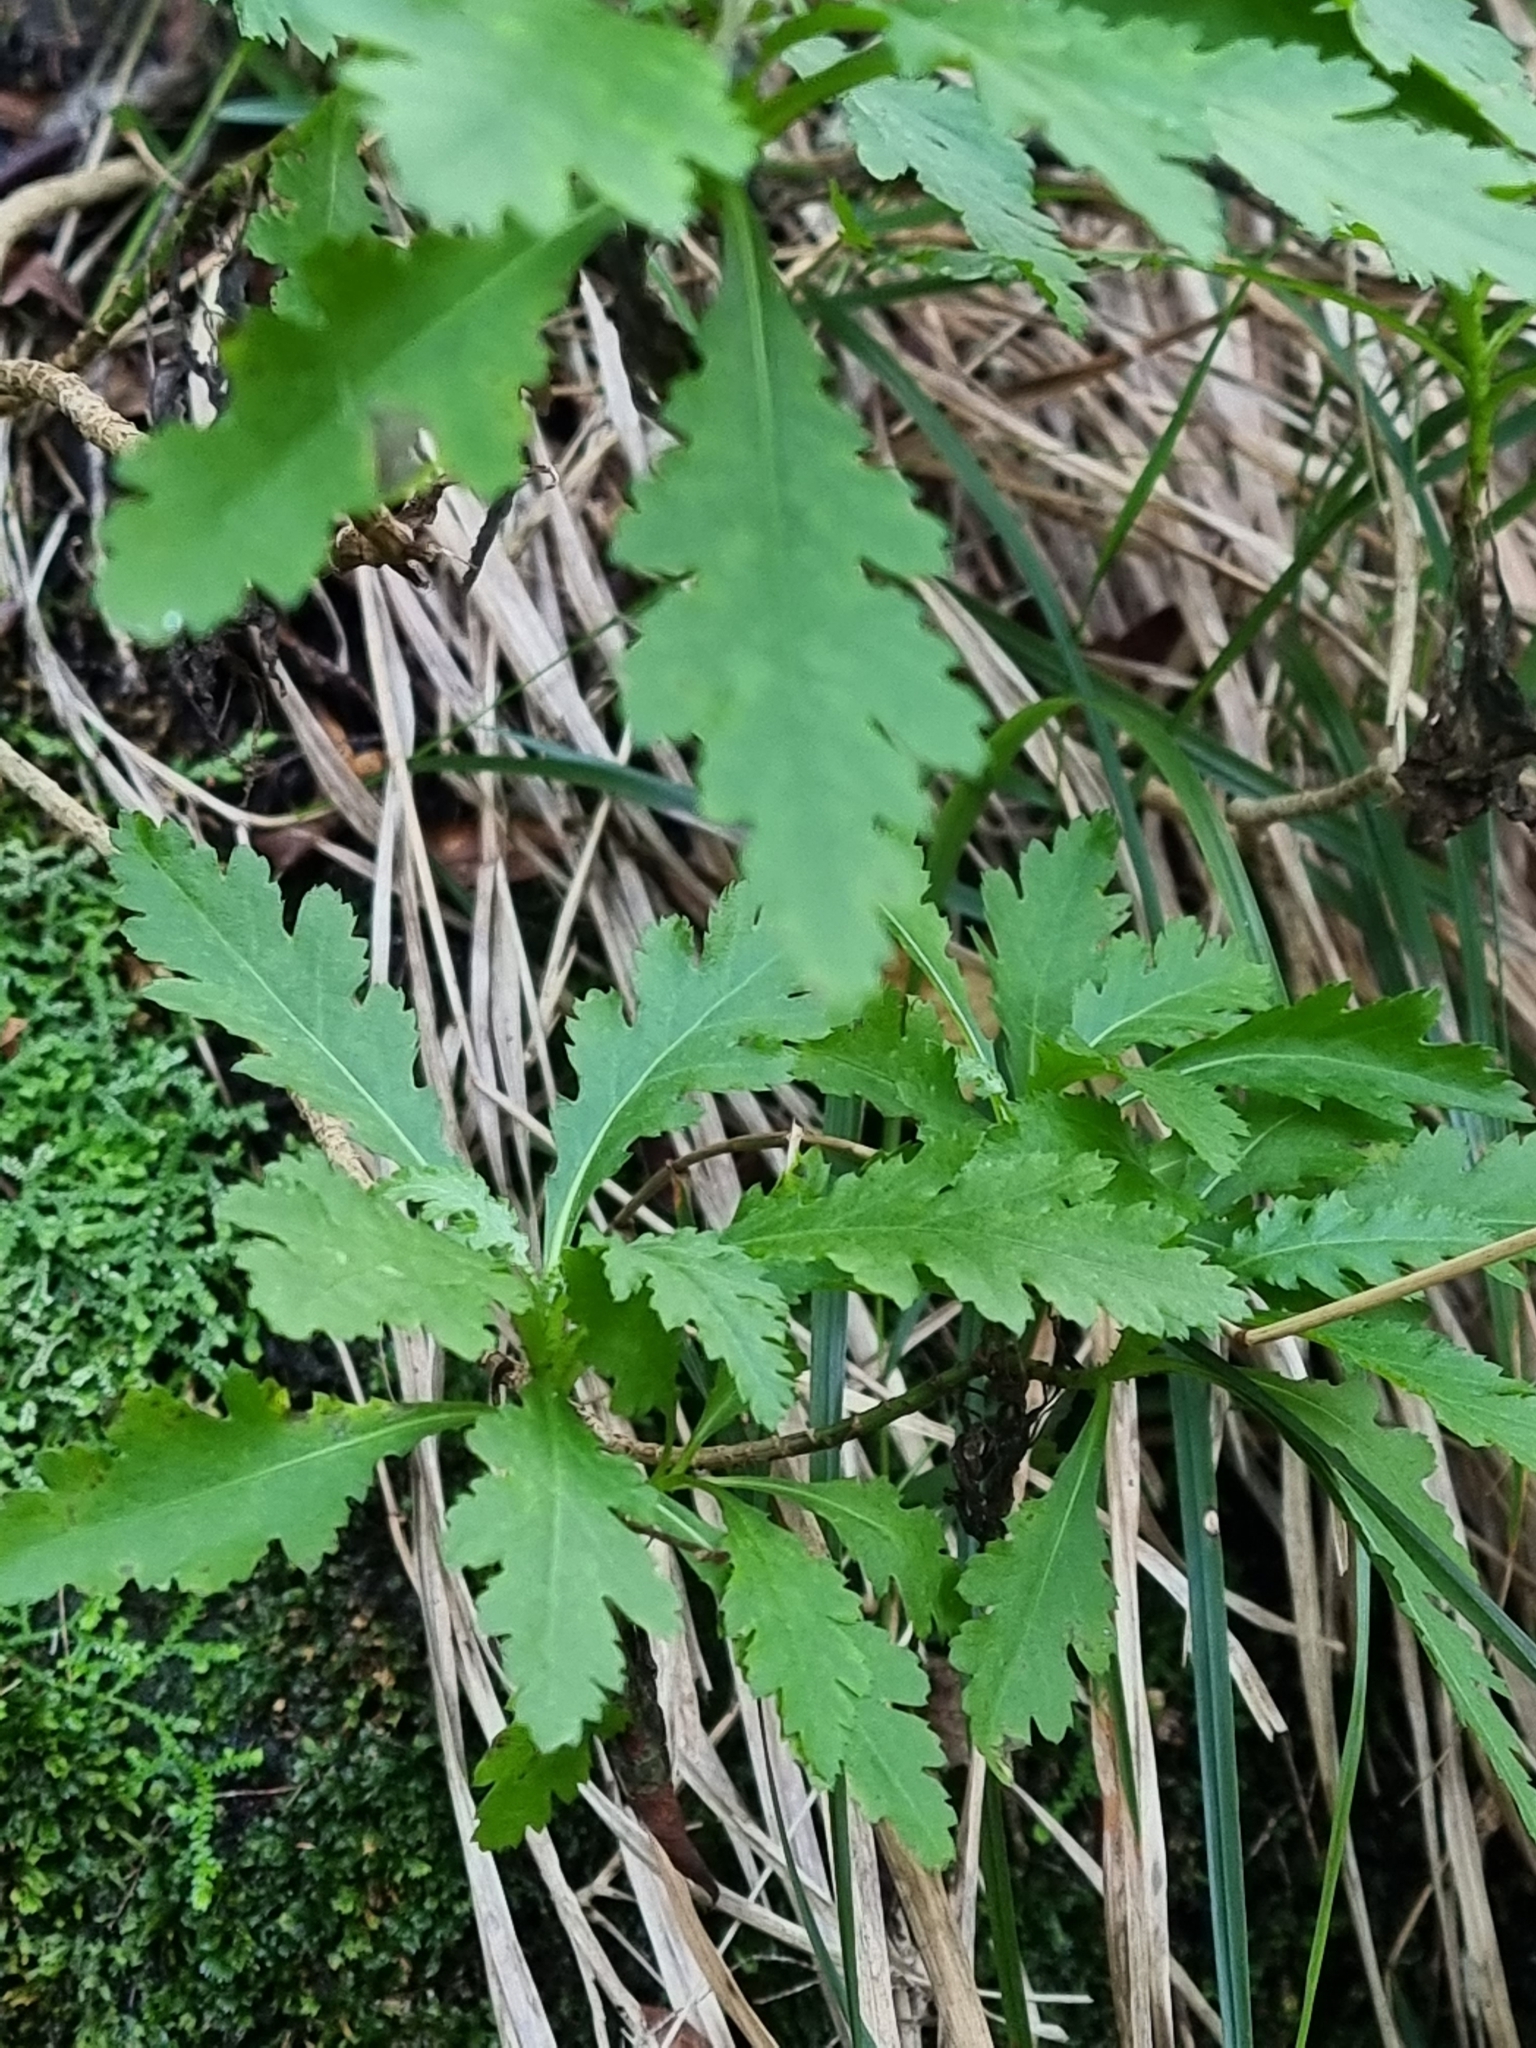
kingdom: Plantae
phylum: Tracheophyta
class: Magnoliopsida
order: Asterales
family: Asteraceae
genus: Argyranthemum
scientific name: Argyranthemum pinnatifidum
